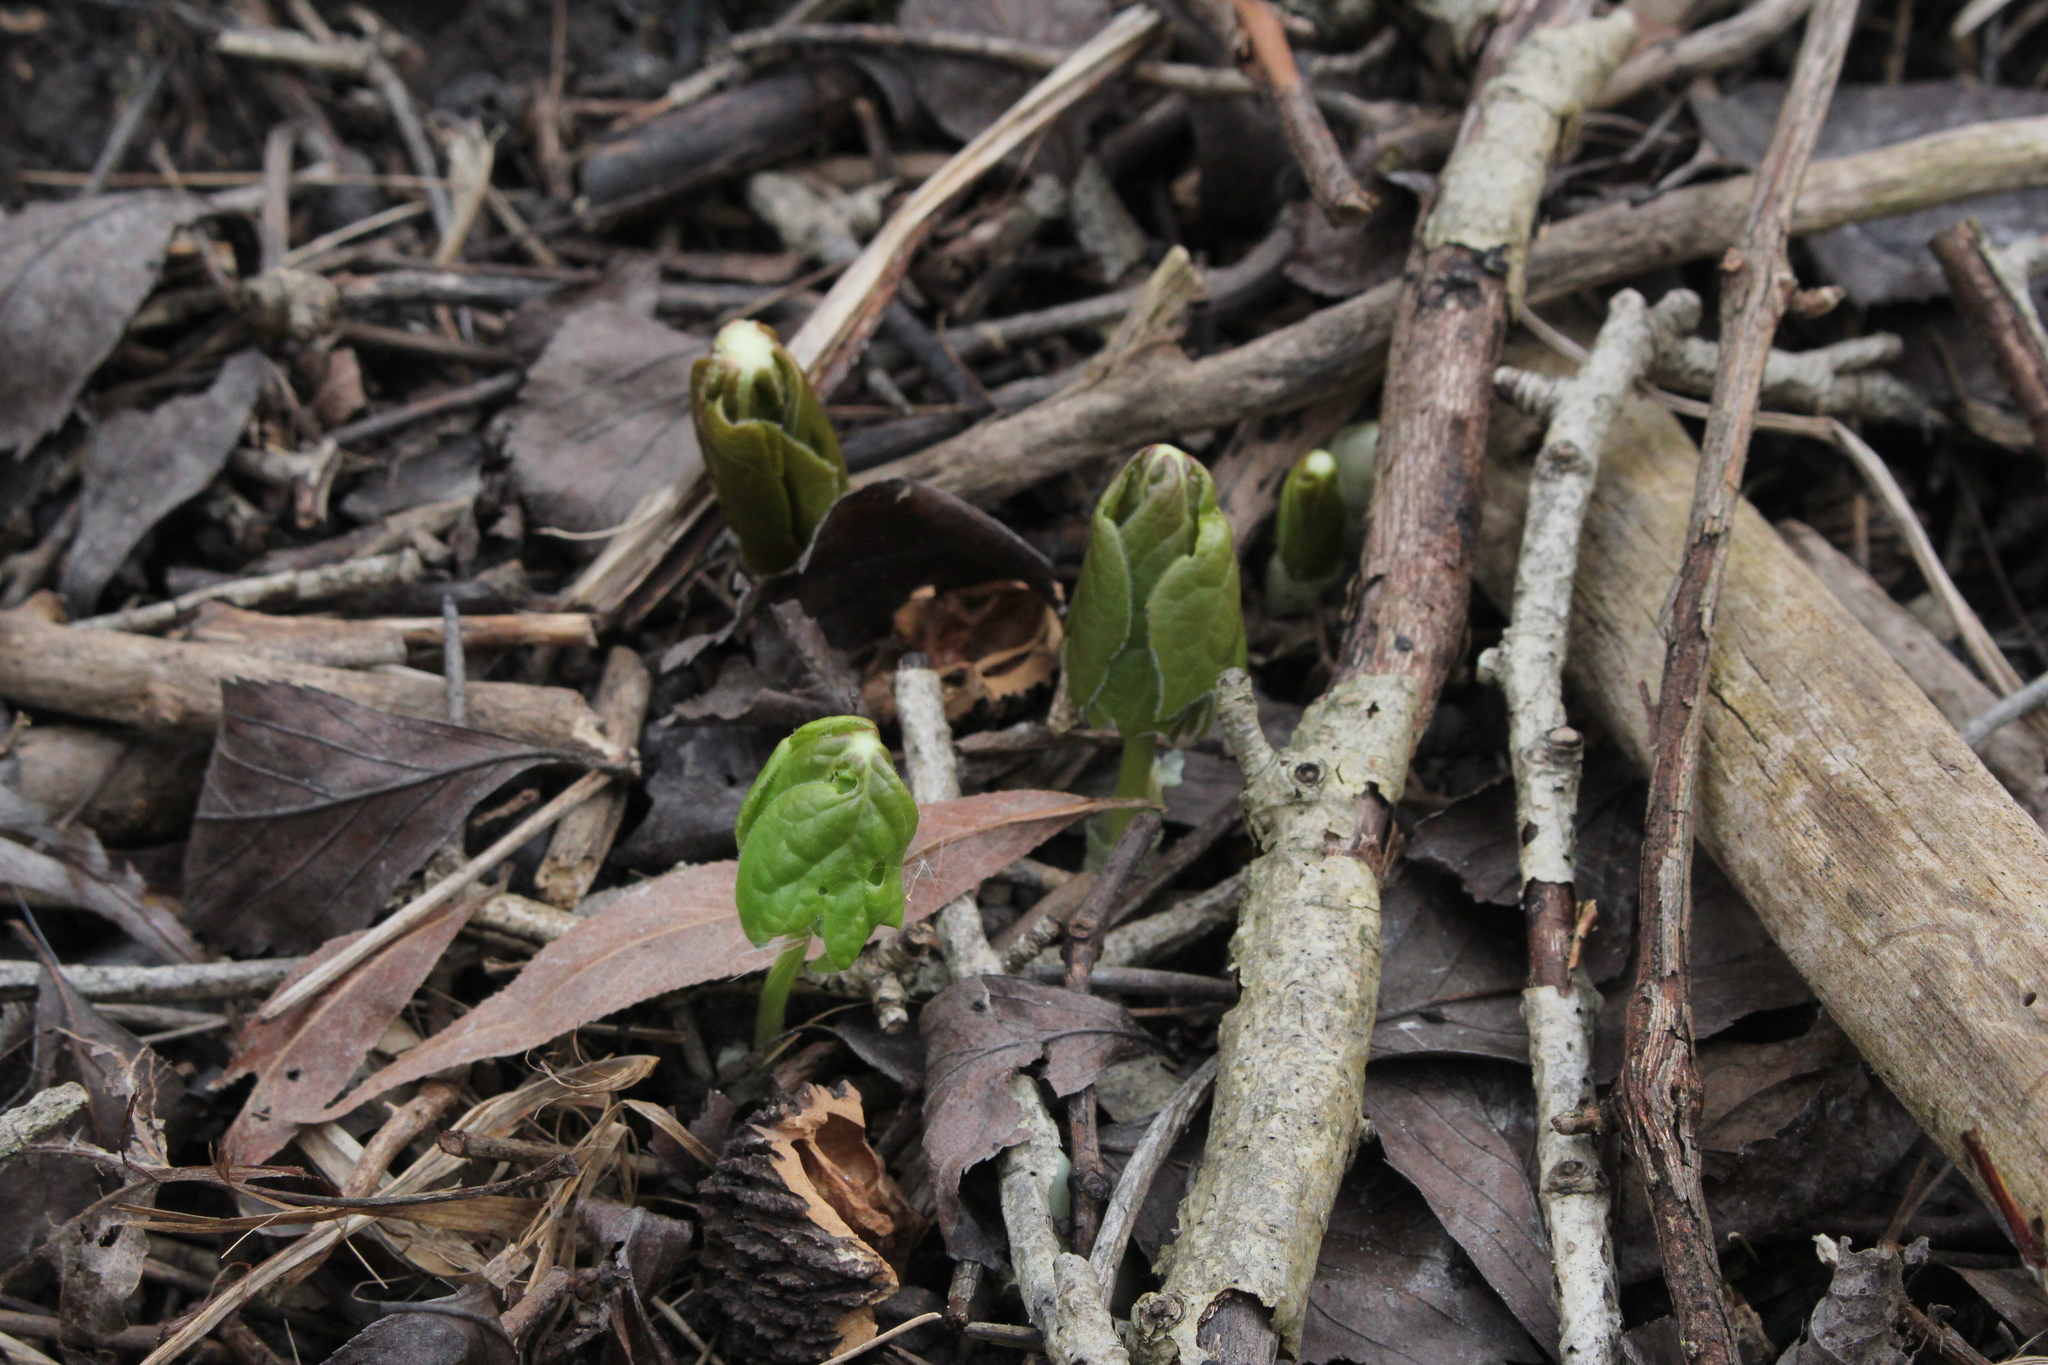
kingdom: Plantae
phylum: Tracheophyta
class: Magnoliopsida
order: Ranunculales
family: Berberidaceae
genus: Podophyllum
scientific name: Podophyllum peltatum
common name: Wild mandrake
